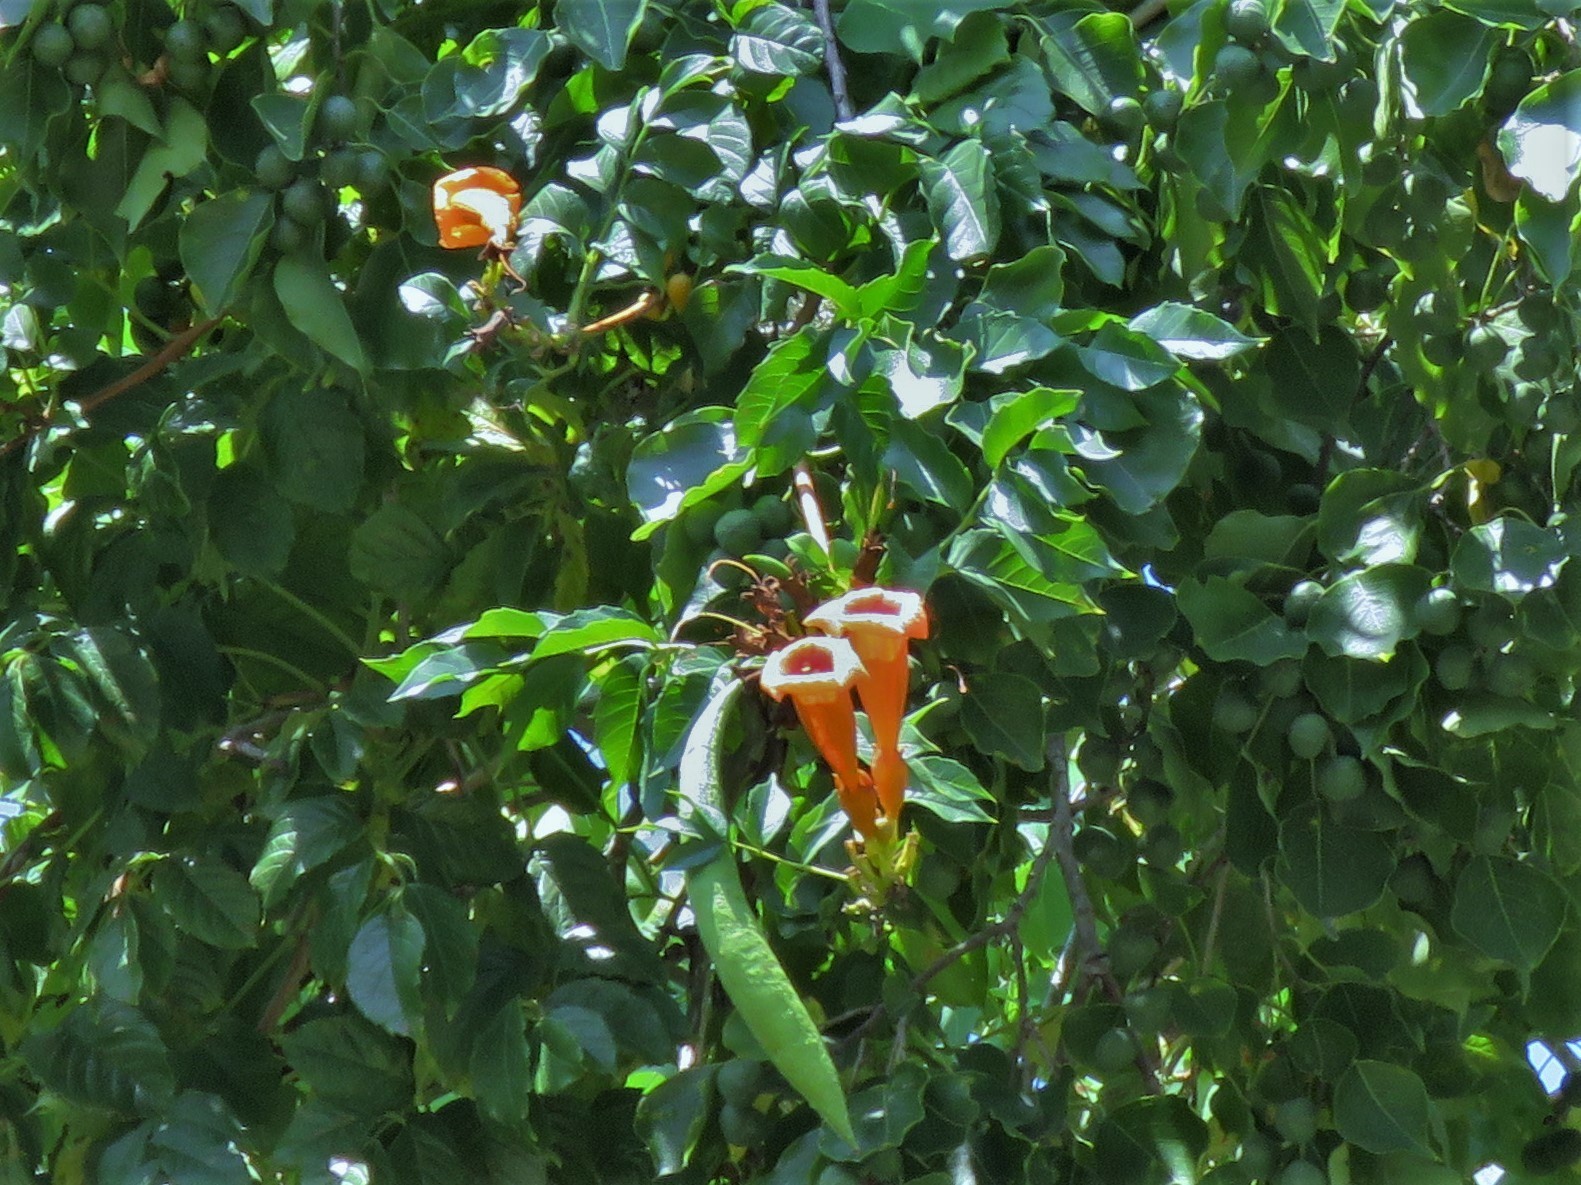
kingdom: Plantae
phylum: Tracheophyta
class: Magnoliopsida
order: Lamiales
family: Bignoniaceae
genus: Campsis
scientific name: Campsis radicans
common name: Trumpet-creeper
